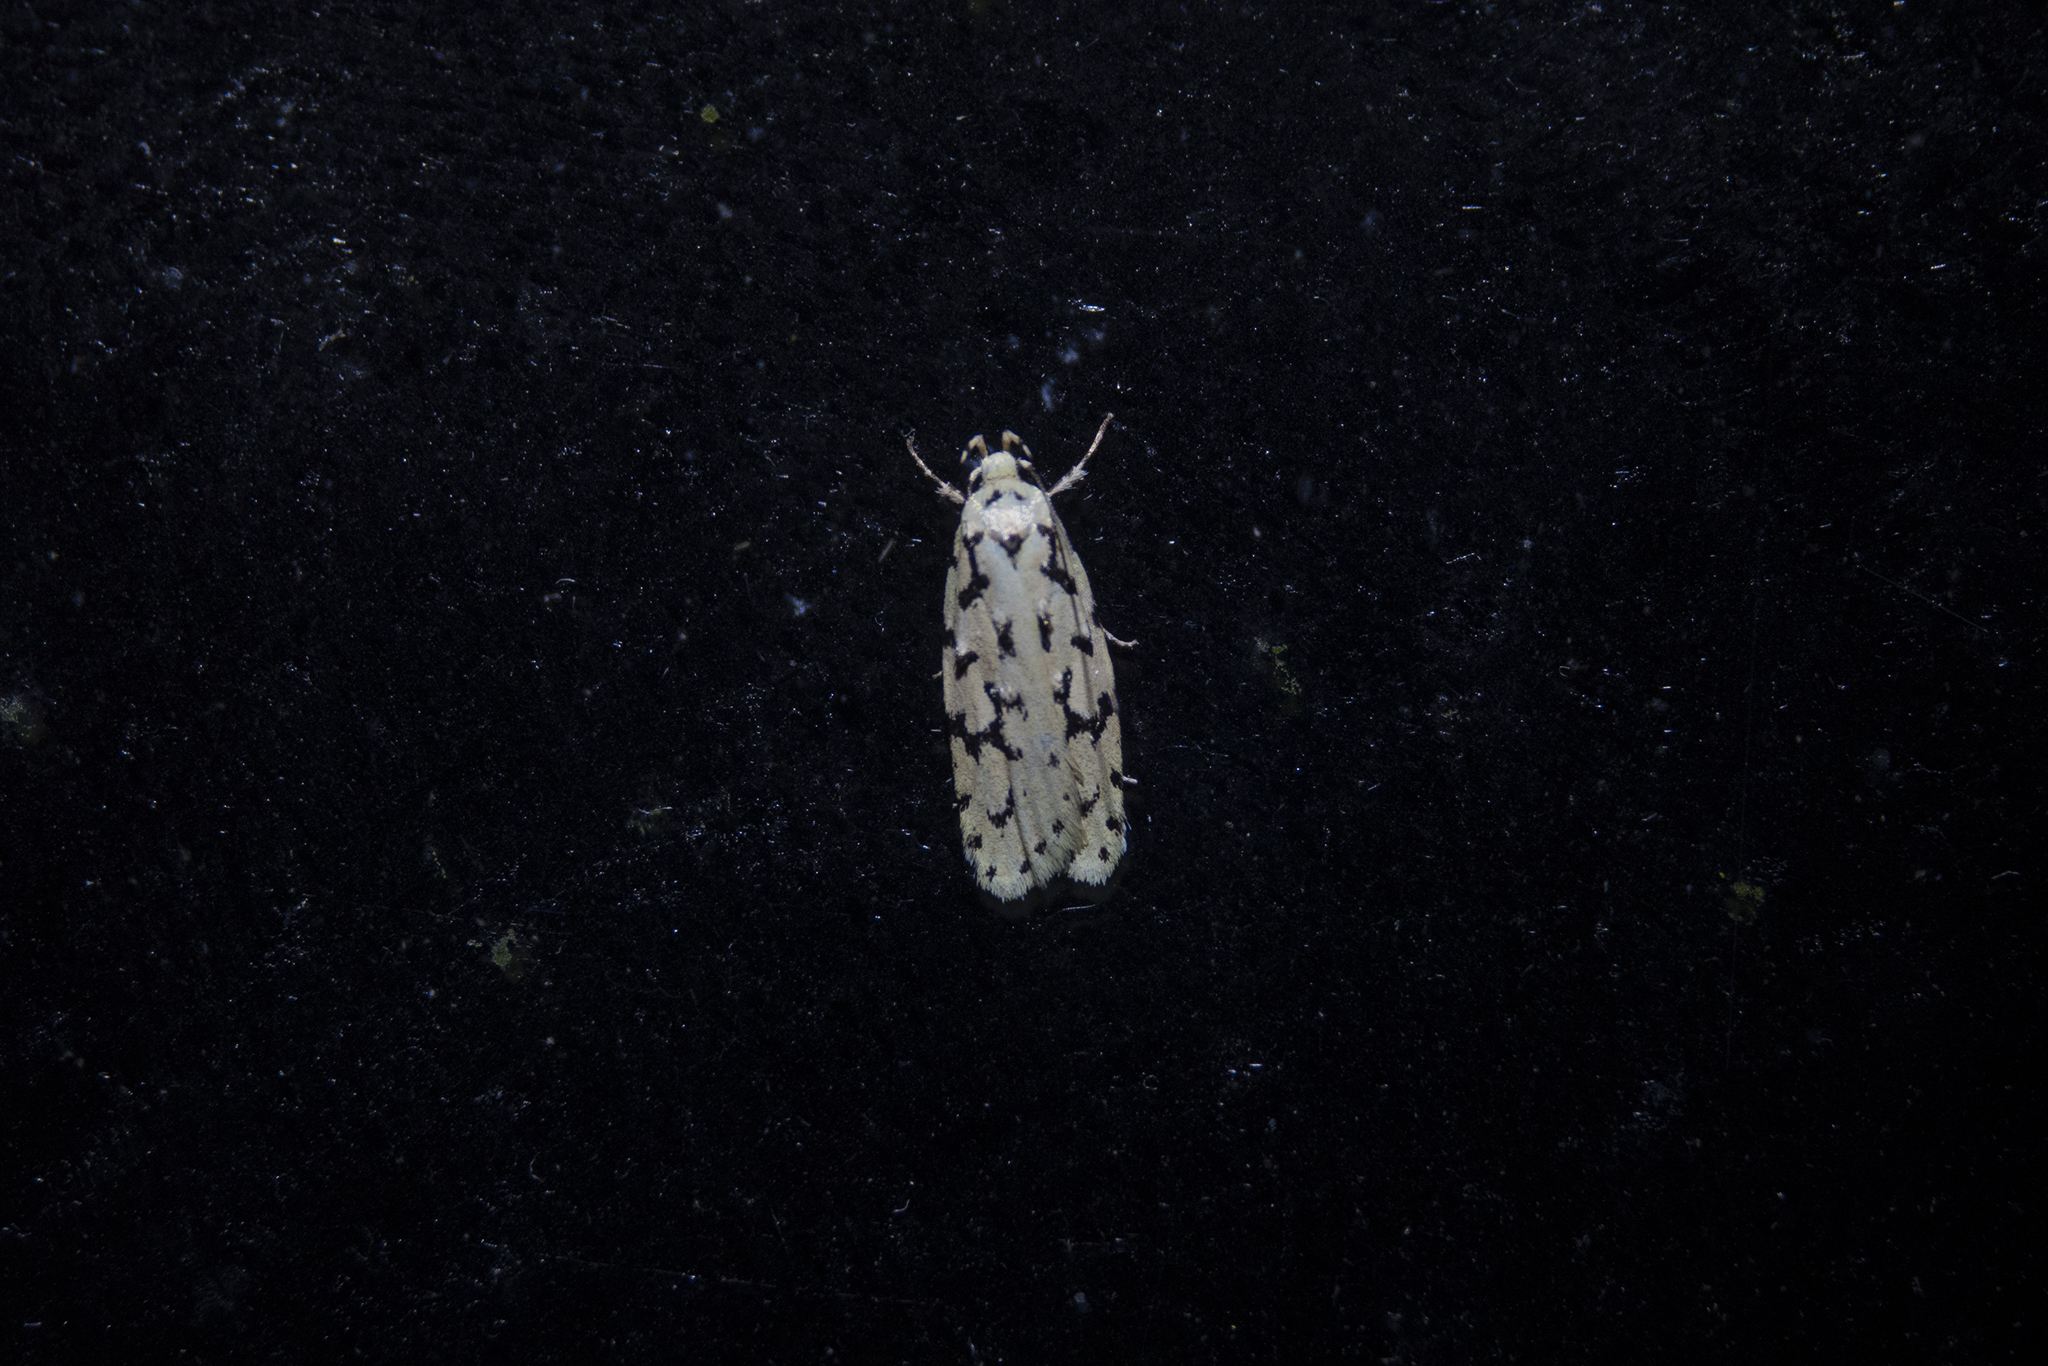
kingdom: Animalia
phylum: Arthropoda
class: Insecta
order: Lepidoptera
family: Oecophoridae
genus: Izatha
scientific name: Izatha huttoni
